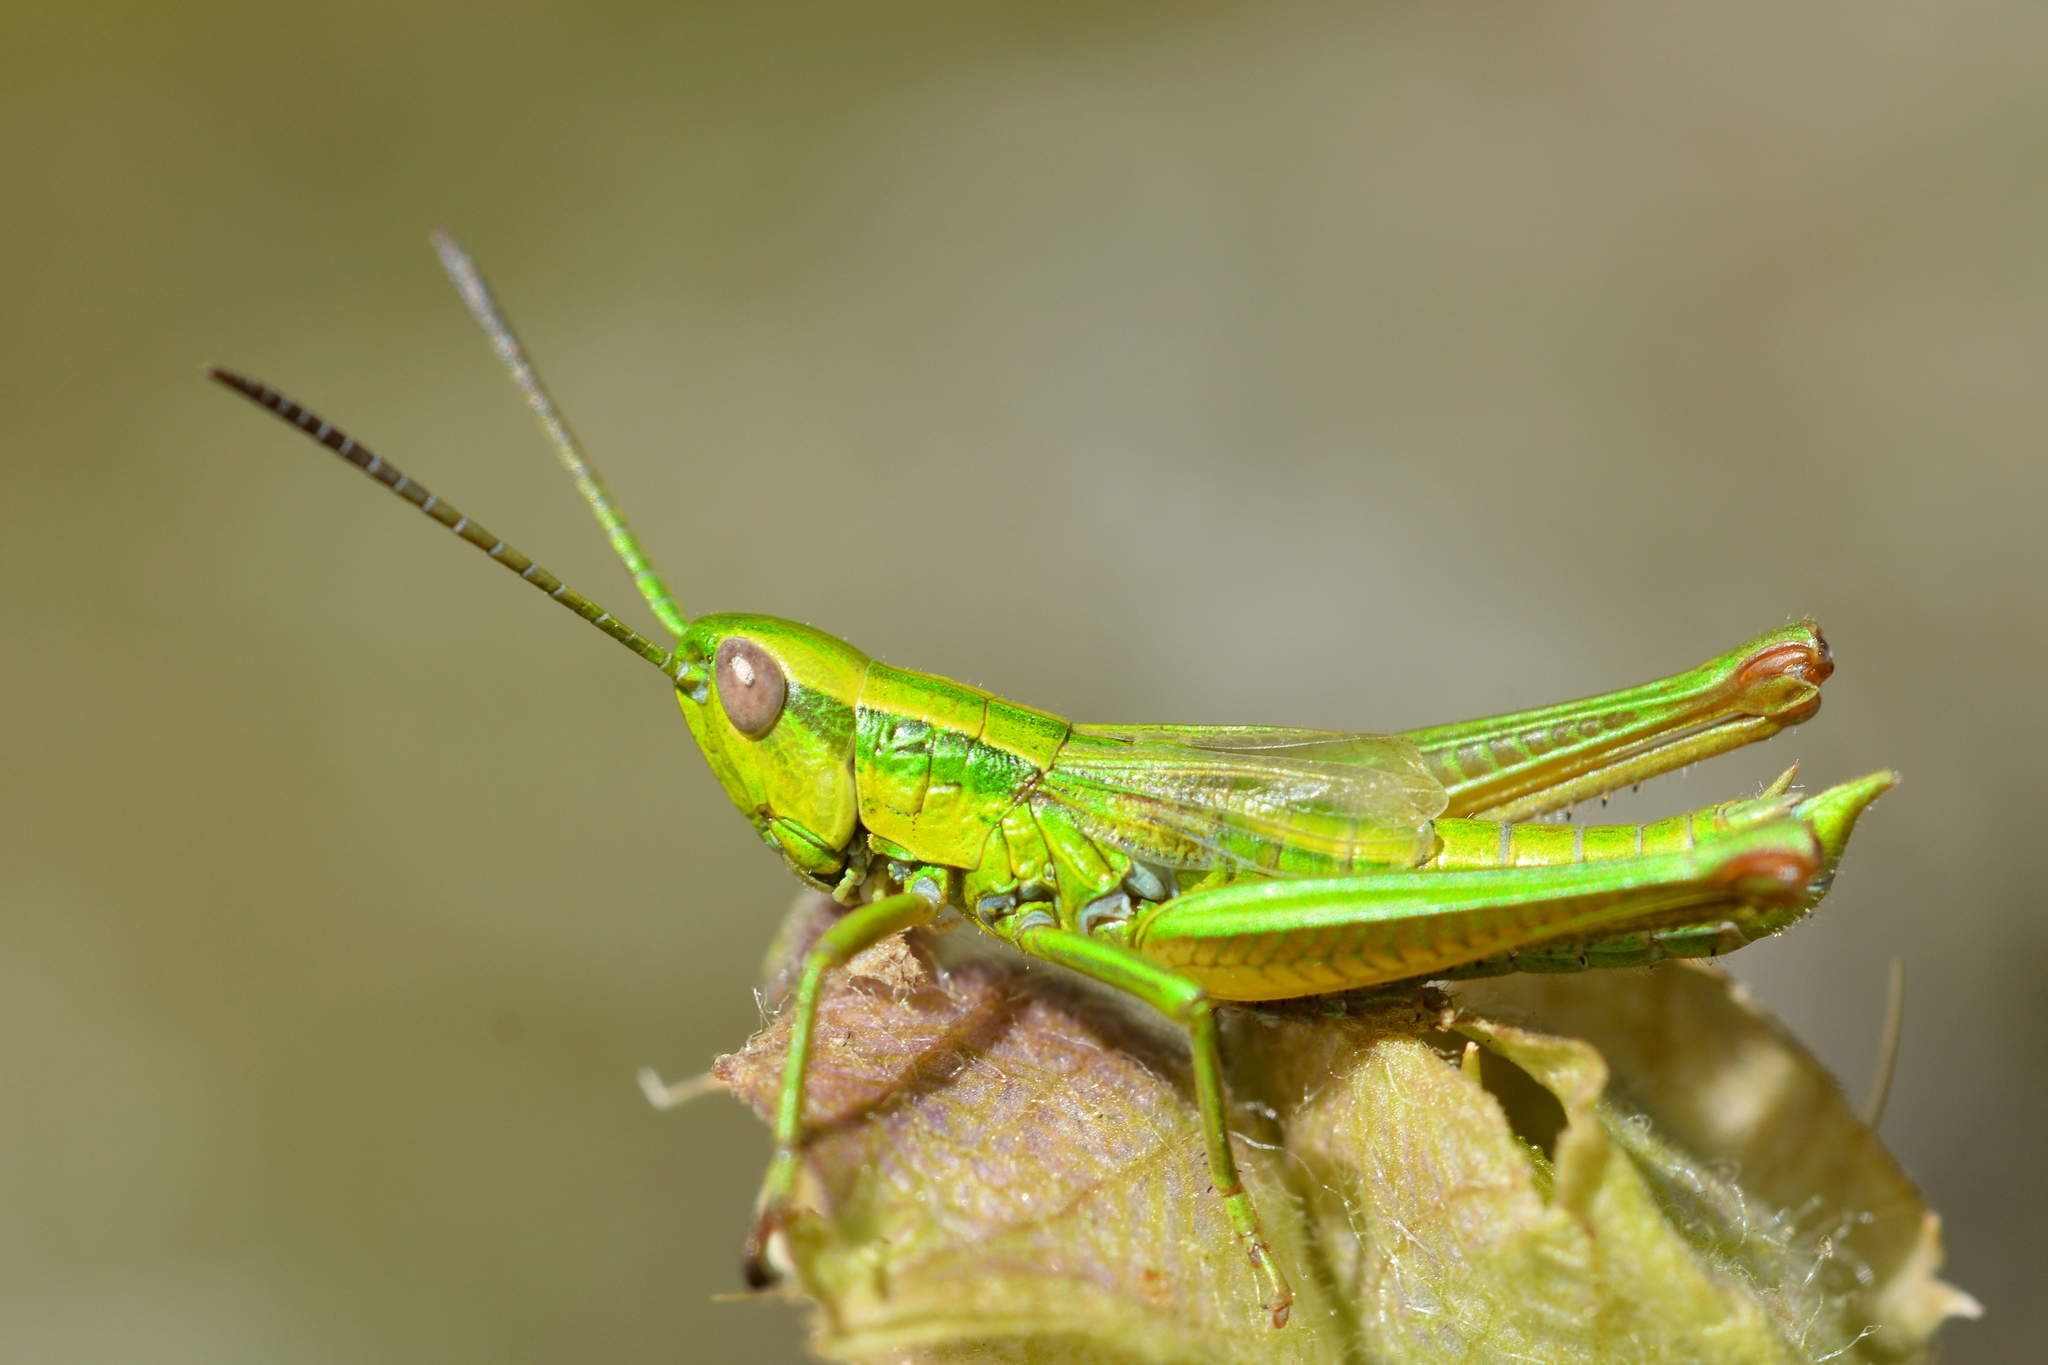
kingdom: Animalia
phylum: Arthropoda
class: Insecta
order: Orthoptera
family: Acrididae
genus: Euthystira
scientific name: Euthystira brachyptera
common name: Small gold grasshopper
